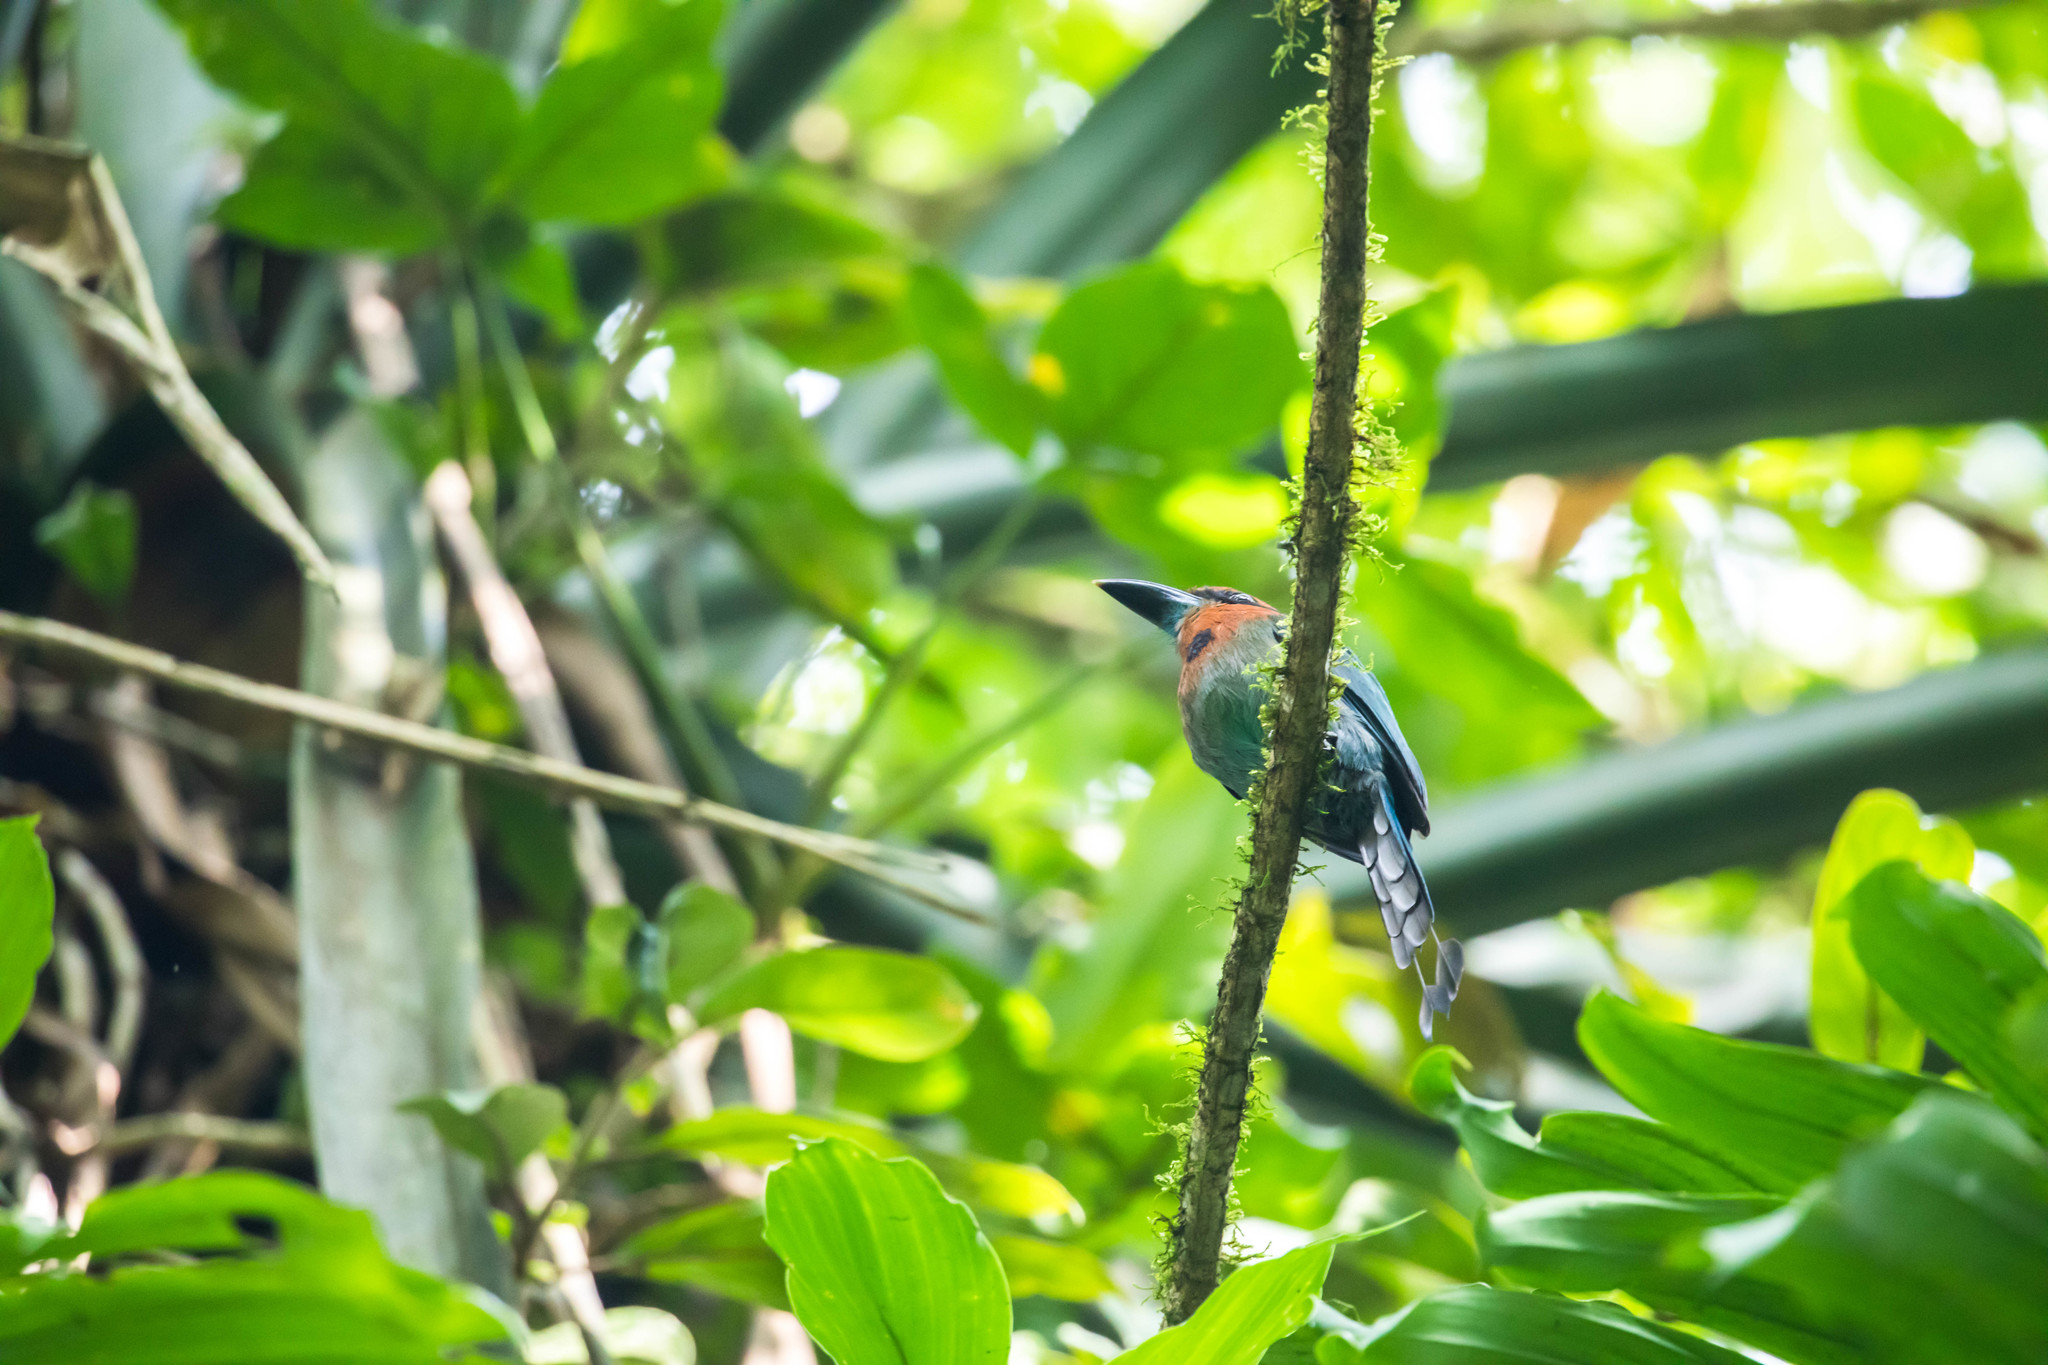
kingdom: Animalia
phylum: Chordata
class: Aves
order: Coraciiformes
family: Momotidae
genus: Electron
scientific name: Electron platyrhynchum
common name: Broad-billed motmot
